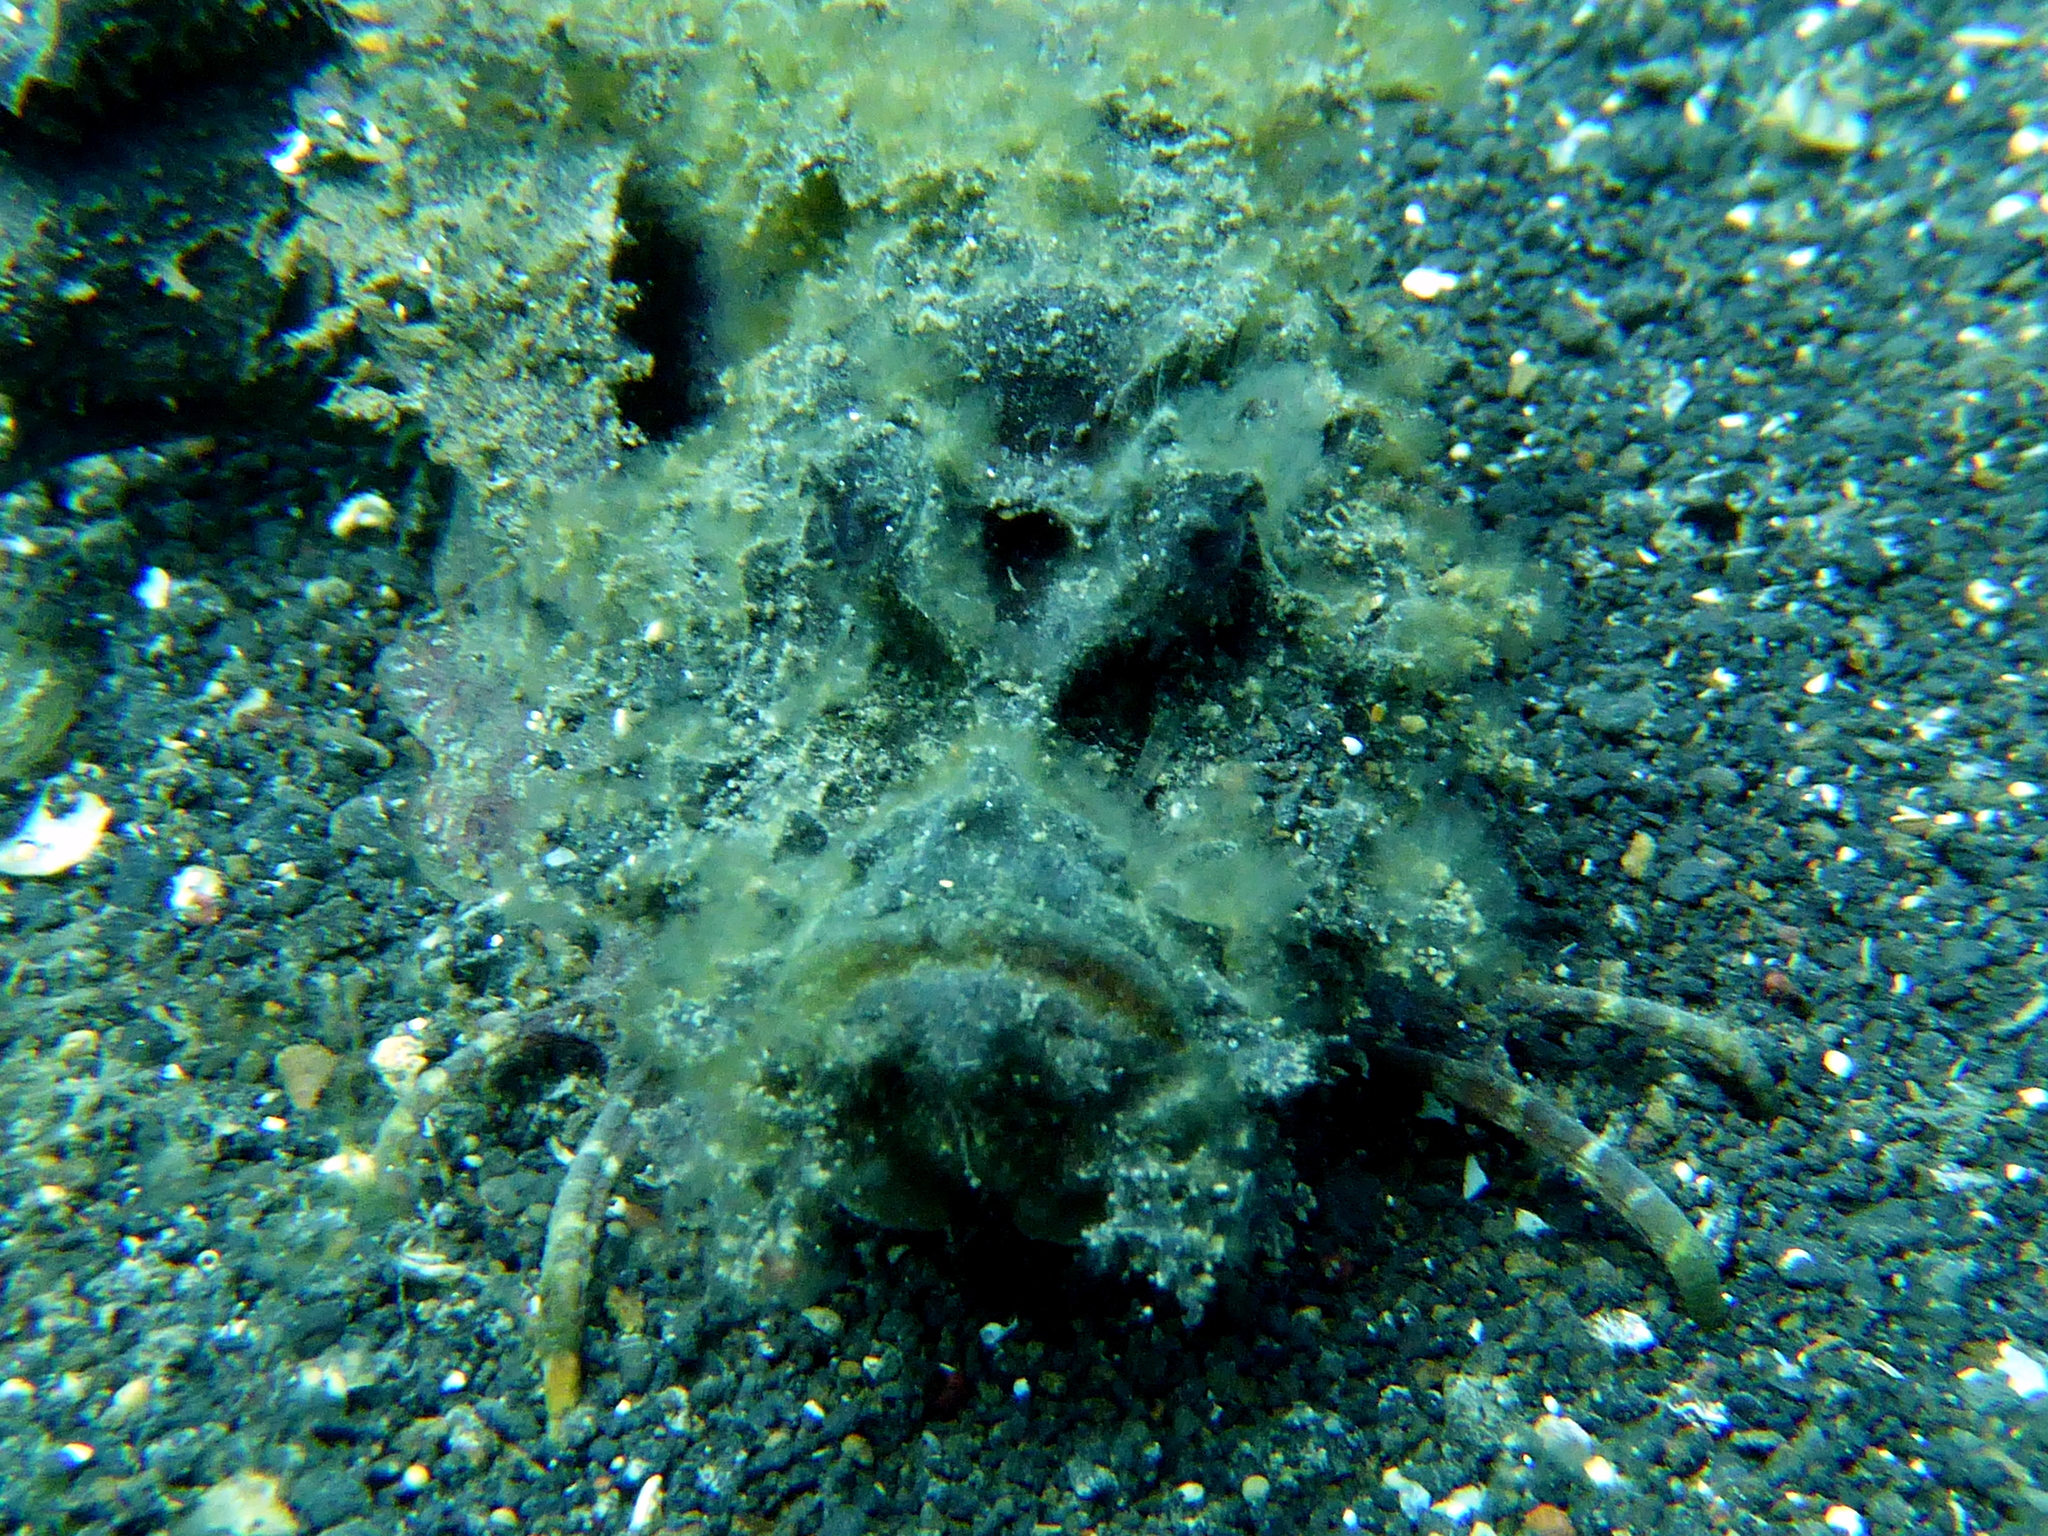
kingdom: Animalia
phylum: Chordata
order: Scorpaeniformes
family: Synanceiidae
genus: Inimicus
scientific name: Inimicus didactylus
